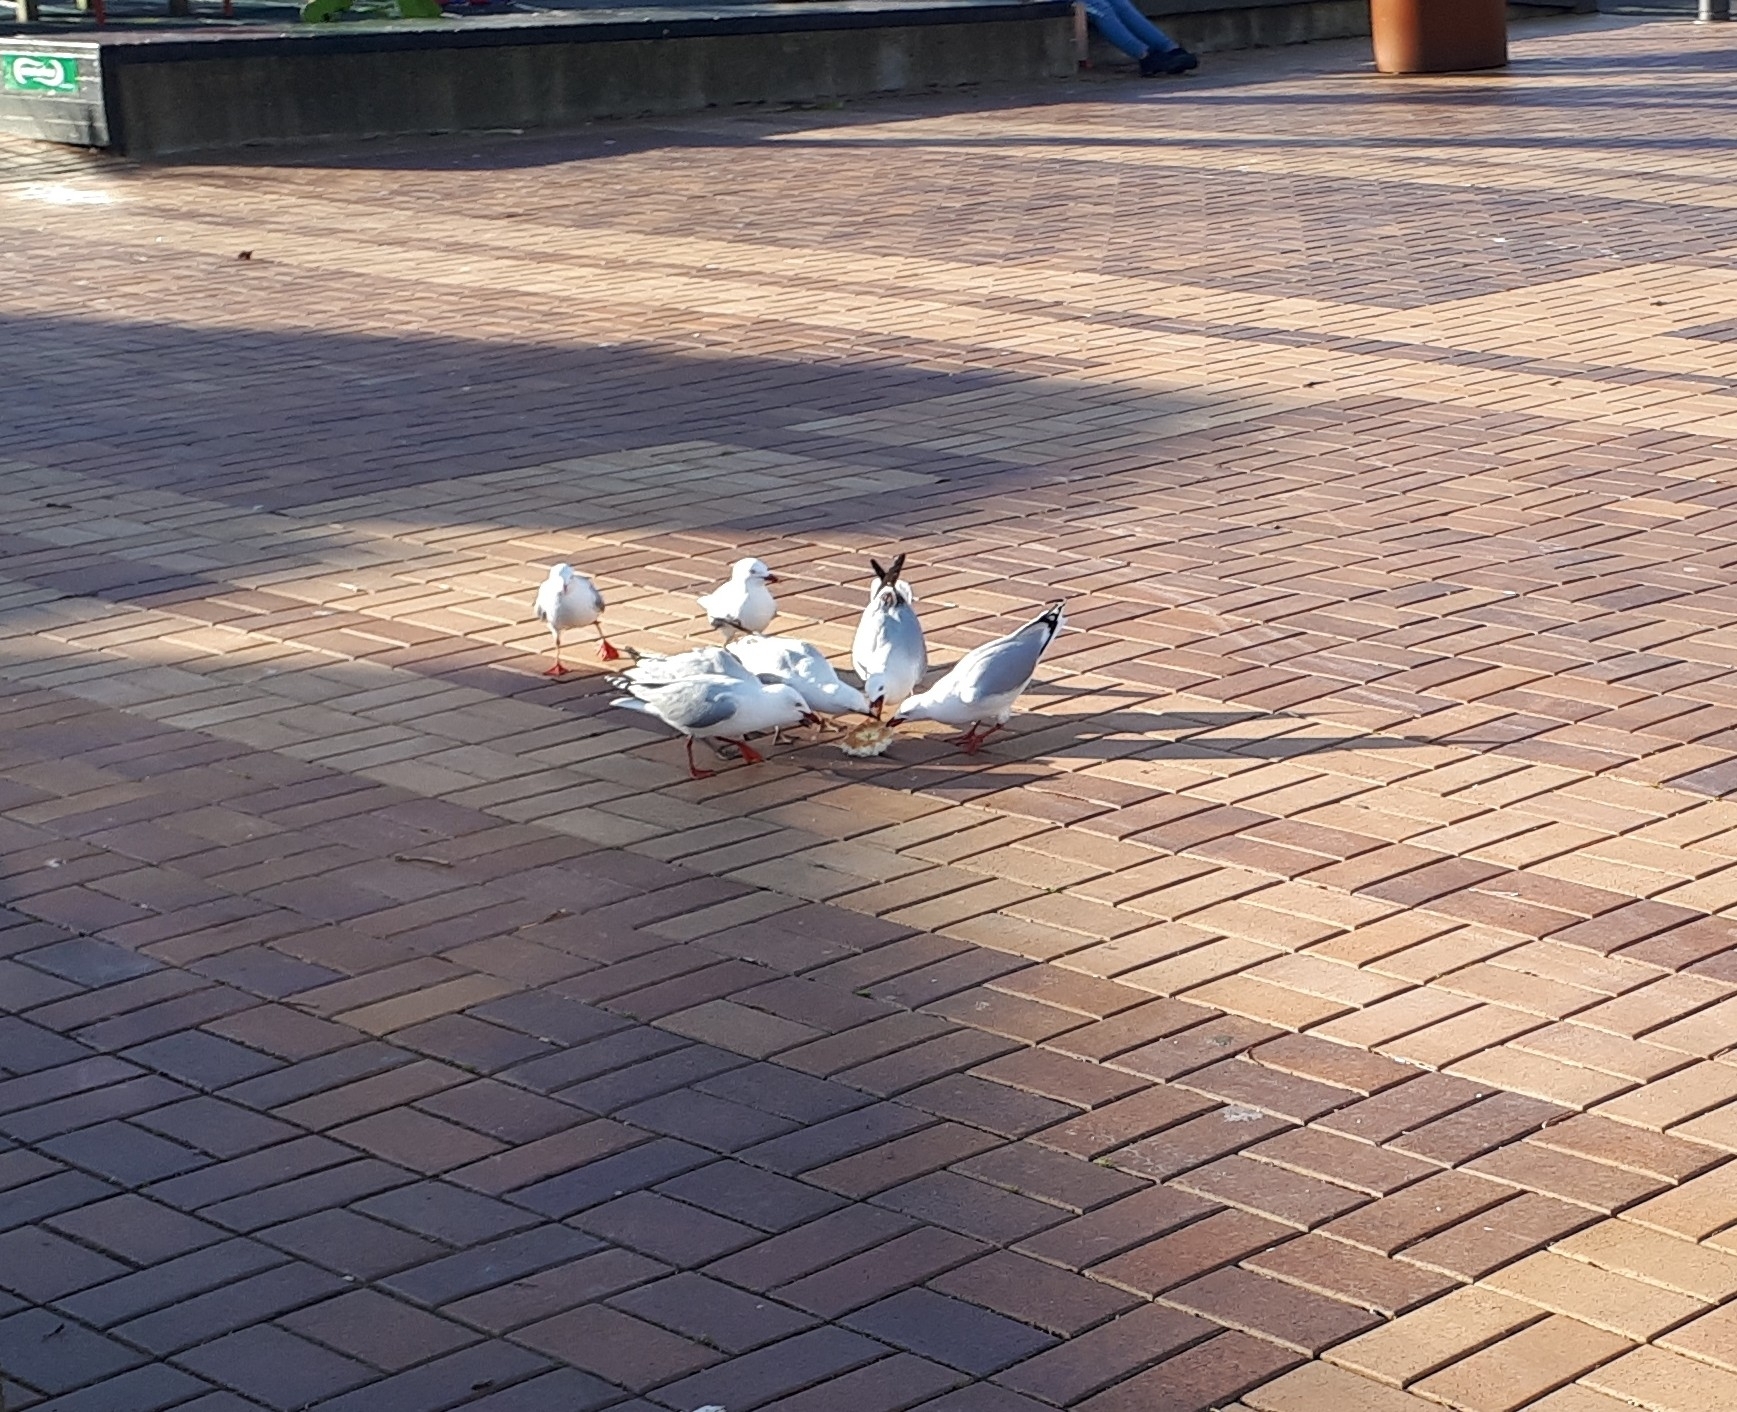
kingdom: Animalia
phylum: Chordata
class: Aves
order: Charadriiformes
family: Laridae
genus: Chroicocephalus
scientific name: Chroicocephalus novaehollandiae
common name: Silver gull
